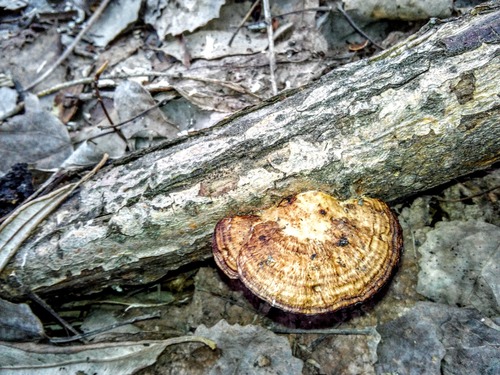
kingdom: Fungi
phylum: Basidiomycota
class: Agaricomycetes
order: Polyporales
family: Polyporaceae
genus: Daedaleopsis
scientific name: Daedaleopsis confragosa
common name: Blushing bracket
